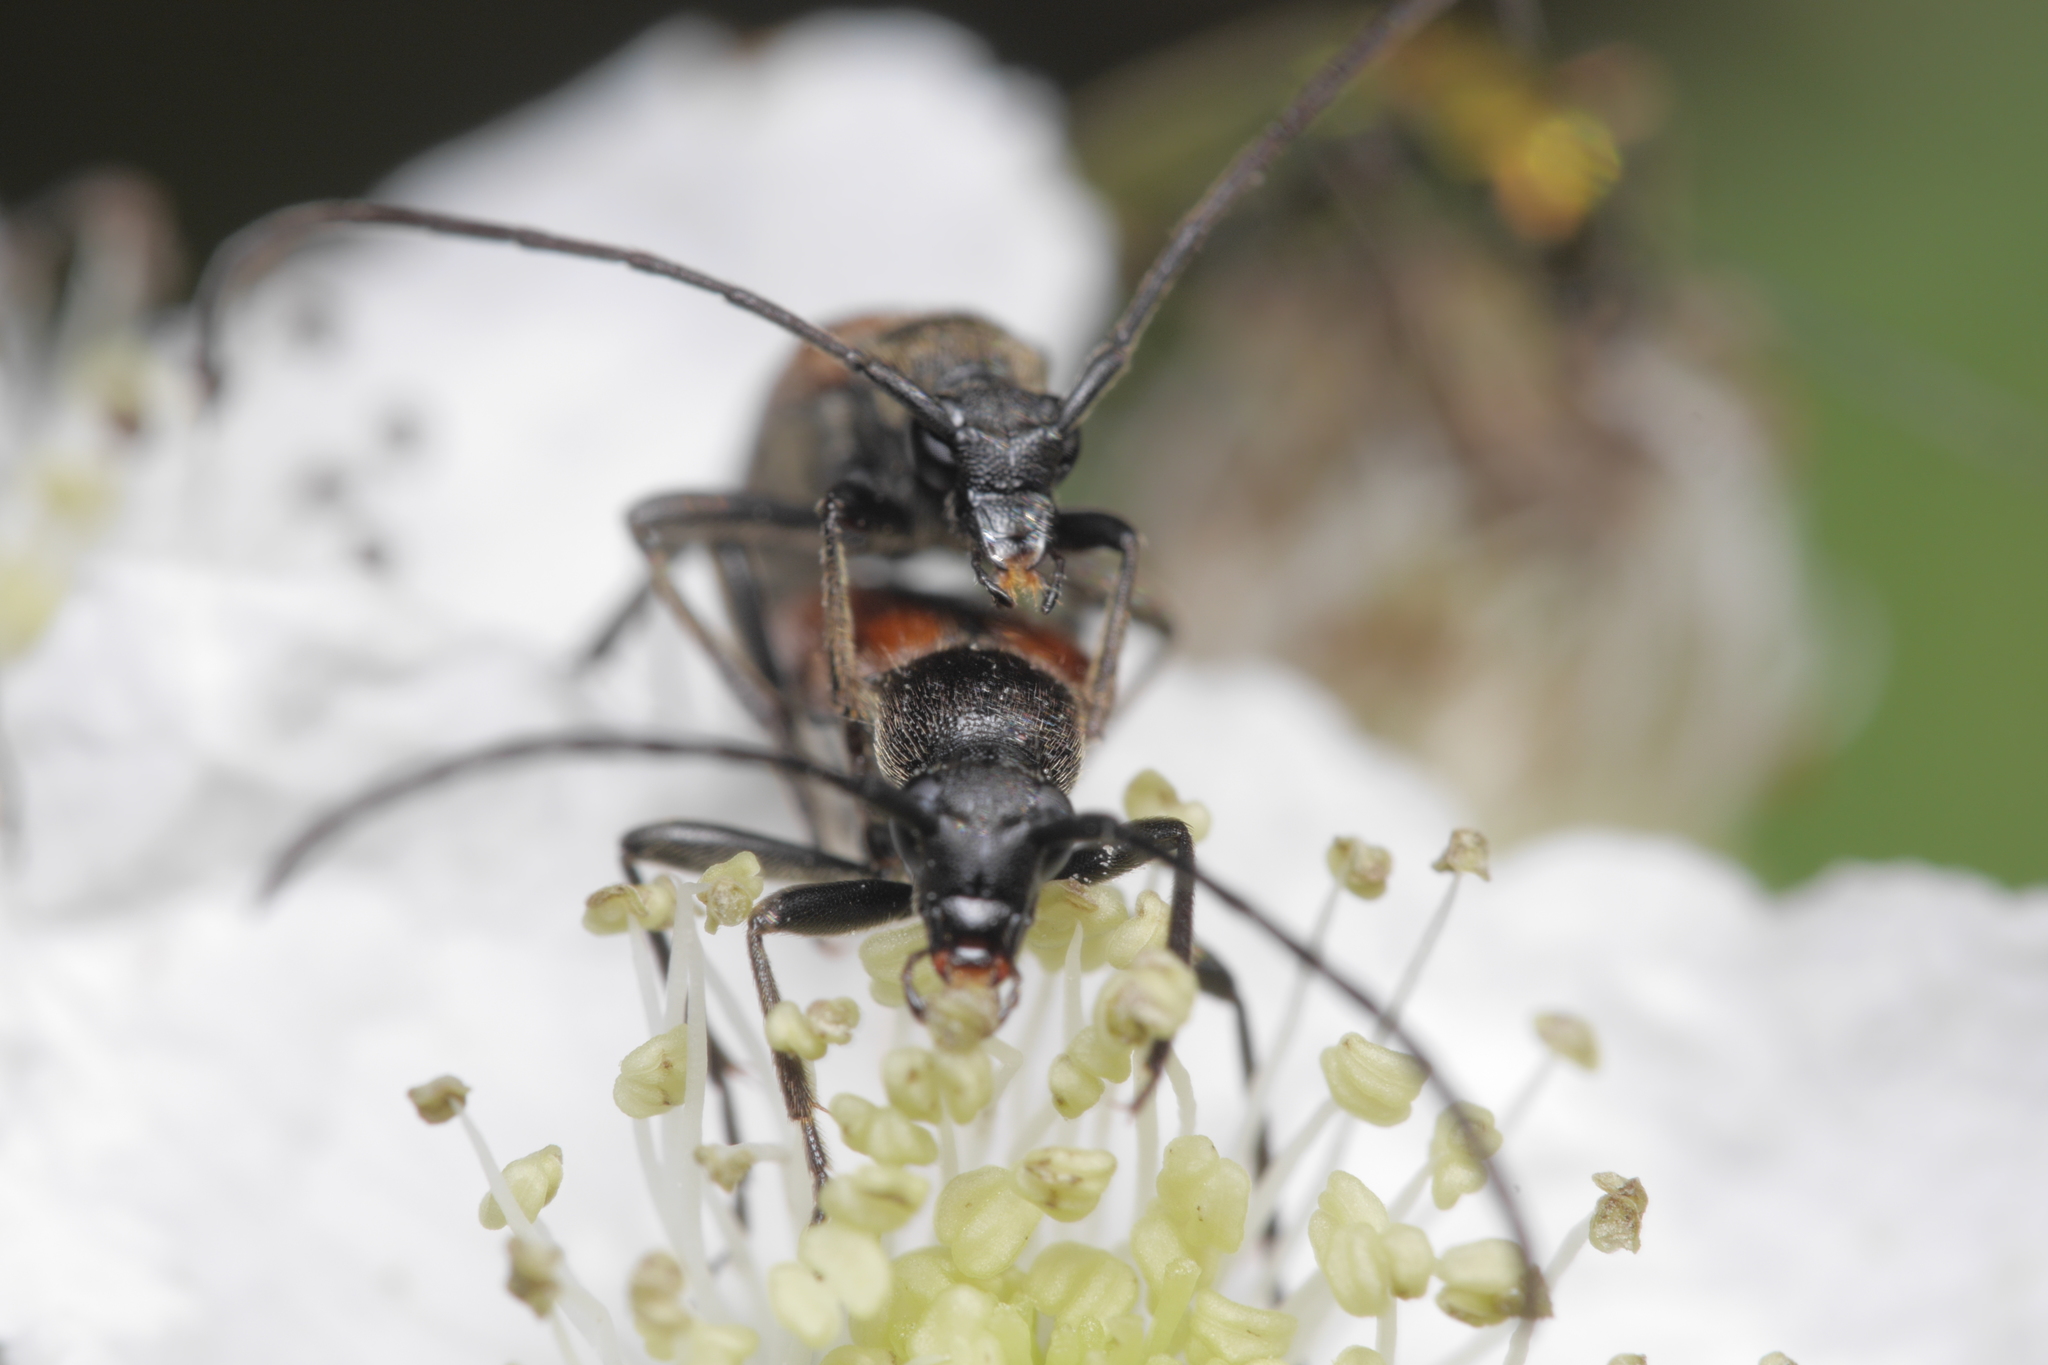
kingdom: Animalia
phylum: Arthropoda
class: Insecta
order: Coleoptera
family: Cerambycidae
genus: Stenurella
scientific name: Stenurella melanura
